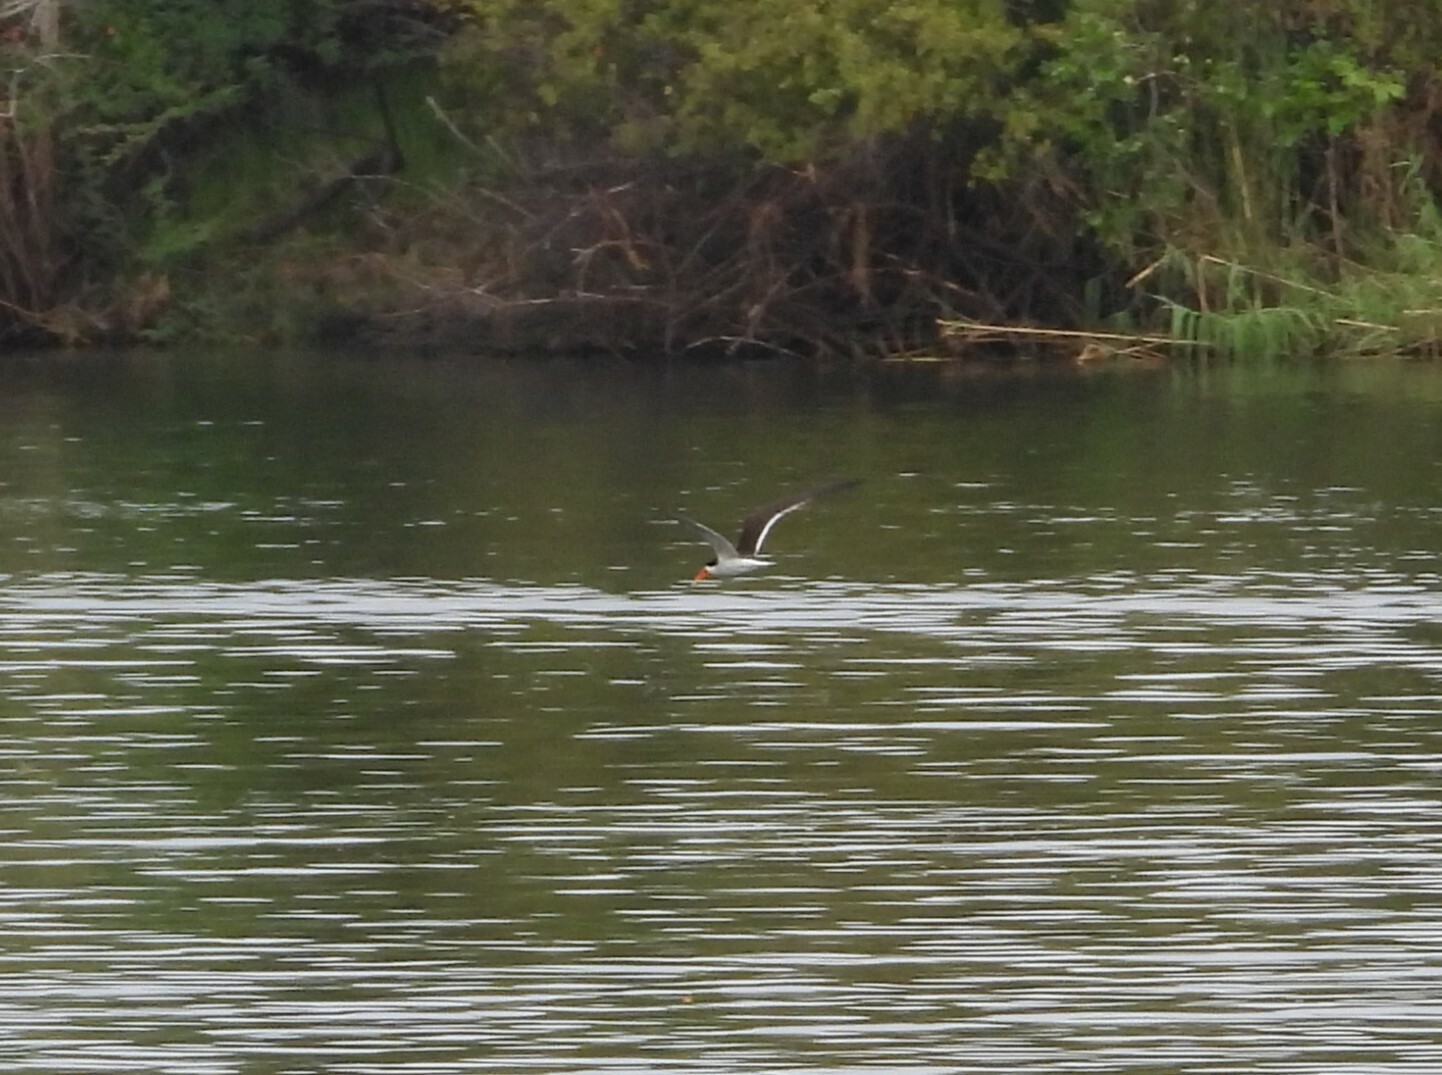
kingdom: Animalia
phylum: Chordata
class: Aves
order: Charadriiformes
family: Laridae
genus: Rynchops
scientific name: Rynchops flavirostris
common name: African skimmer
